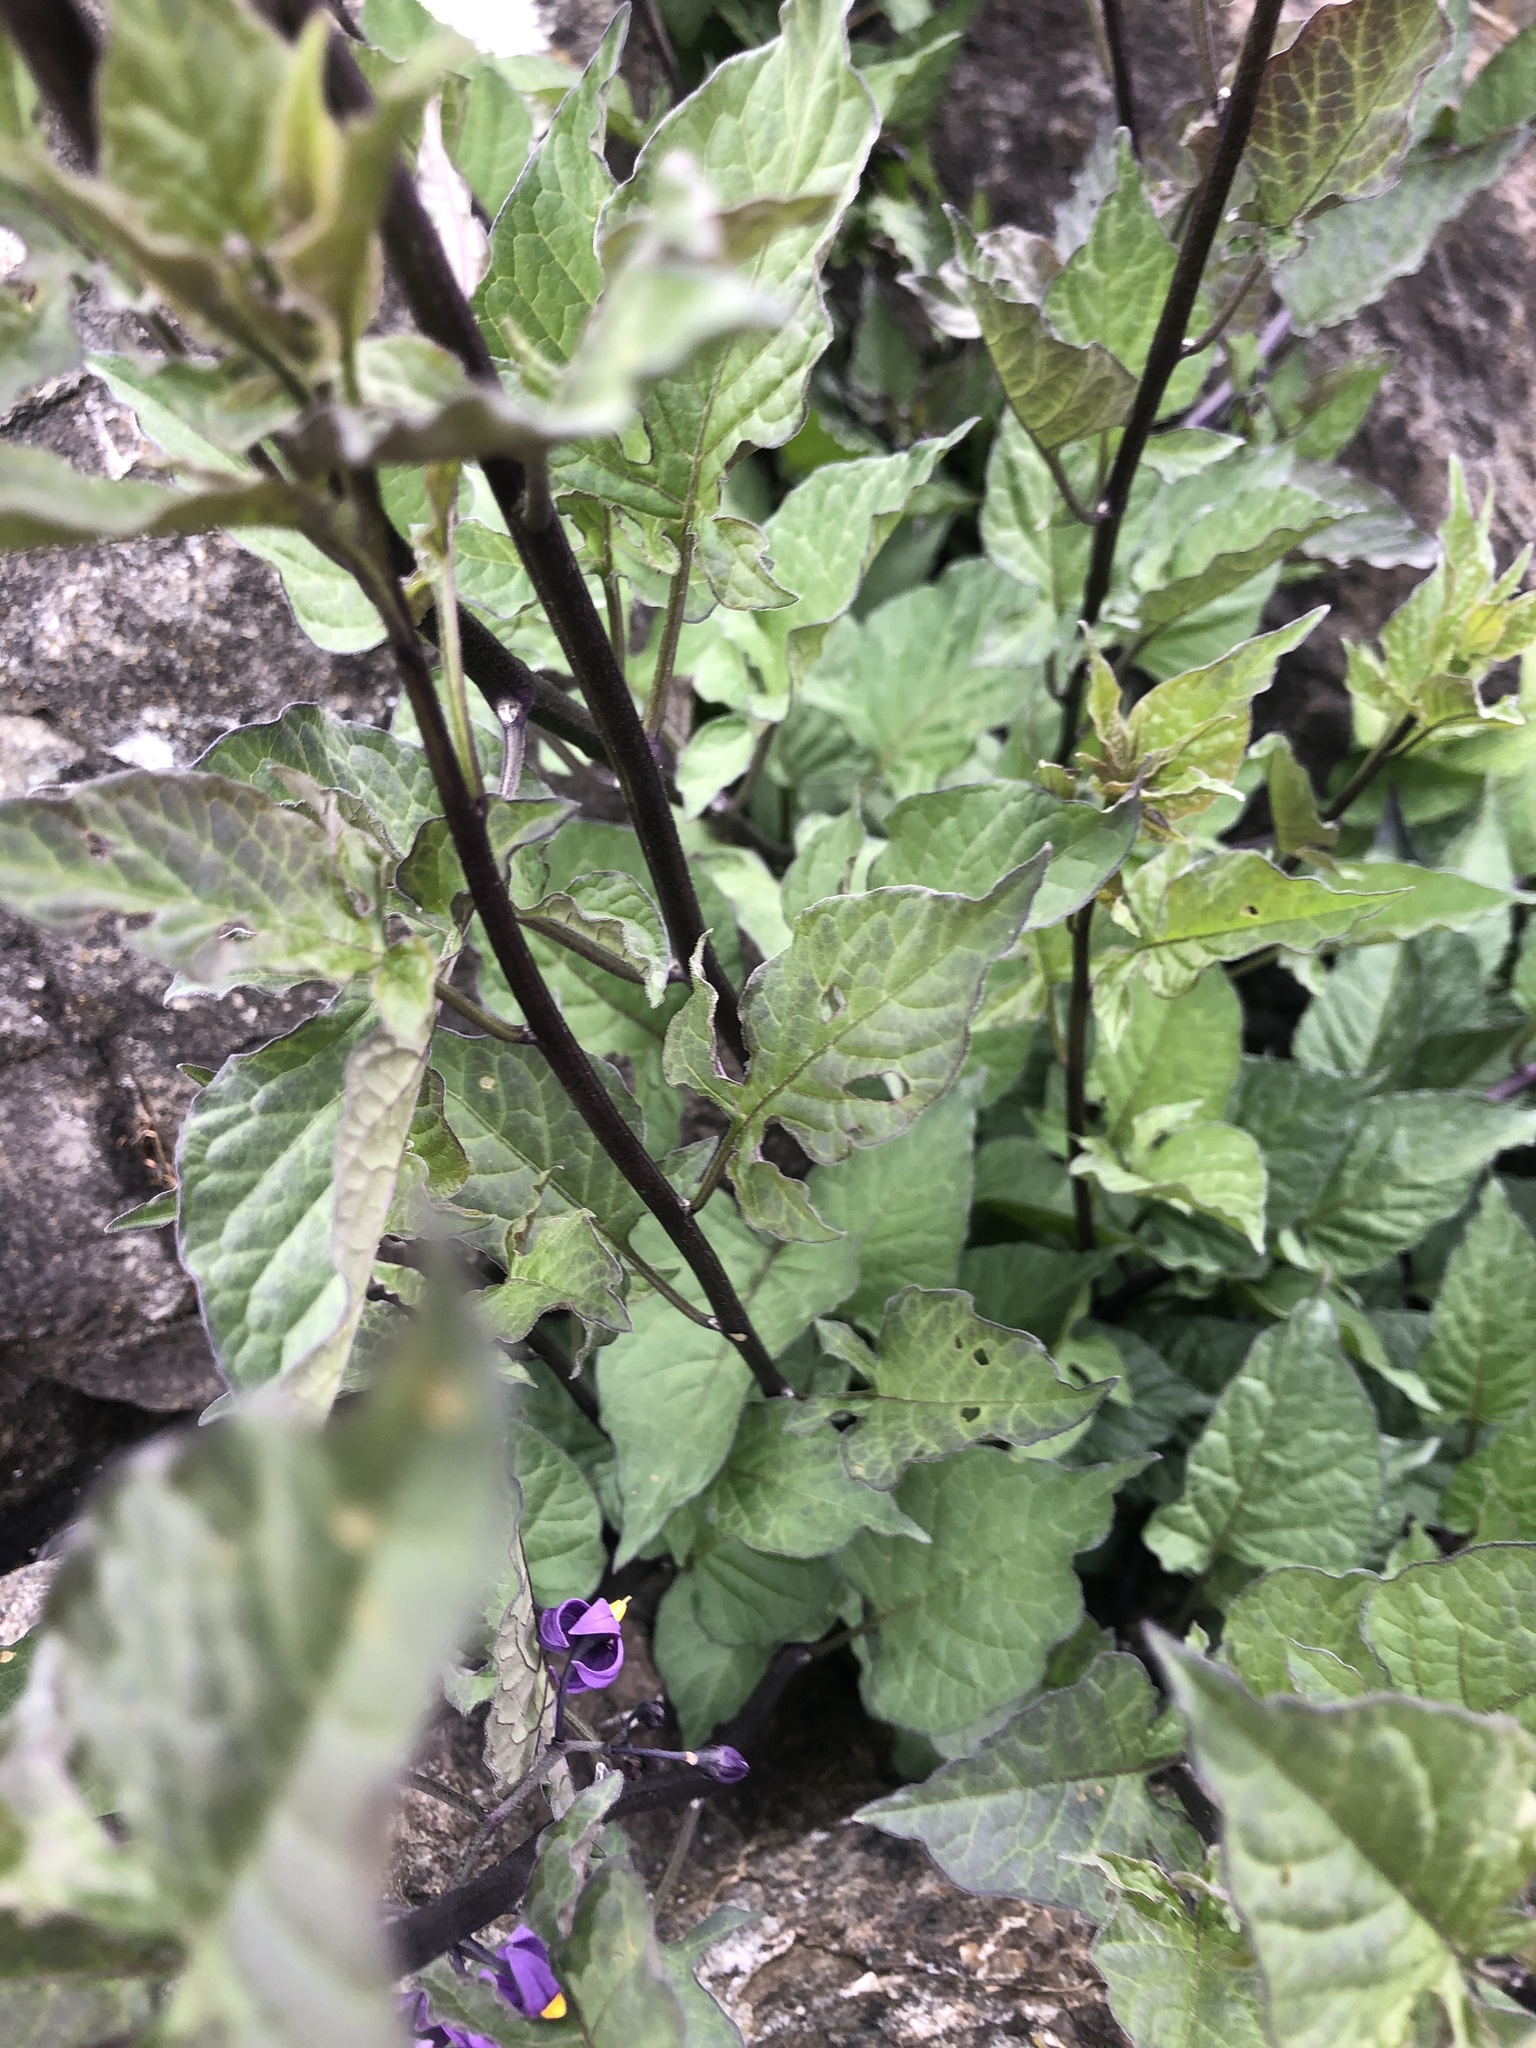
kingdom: Plantae
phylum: Tracheophyta
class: Magnoliopsida
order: Solanales
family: Solanaceae
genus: Solanum
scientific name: Solanum dulcamara
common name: Climbing nightshade
